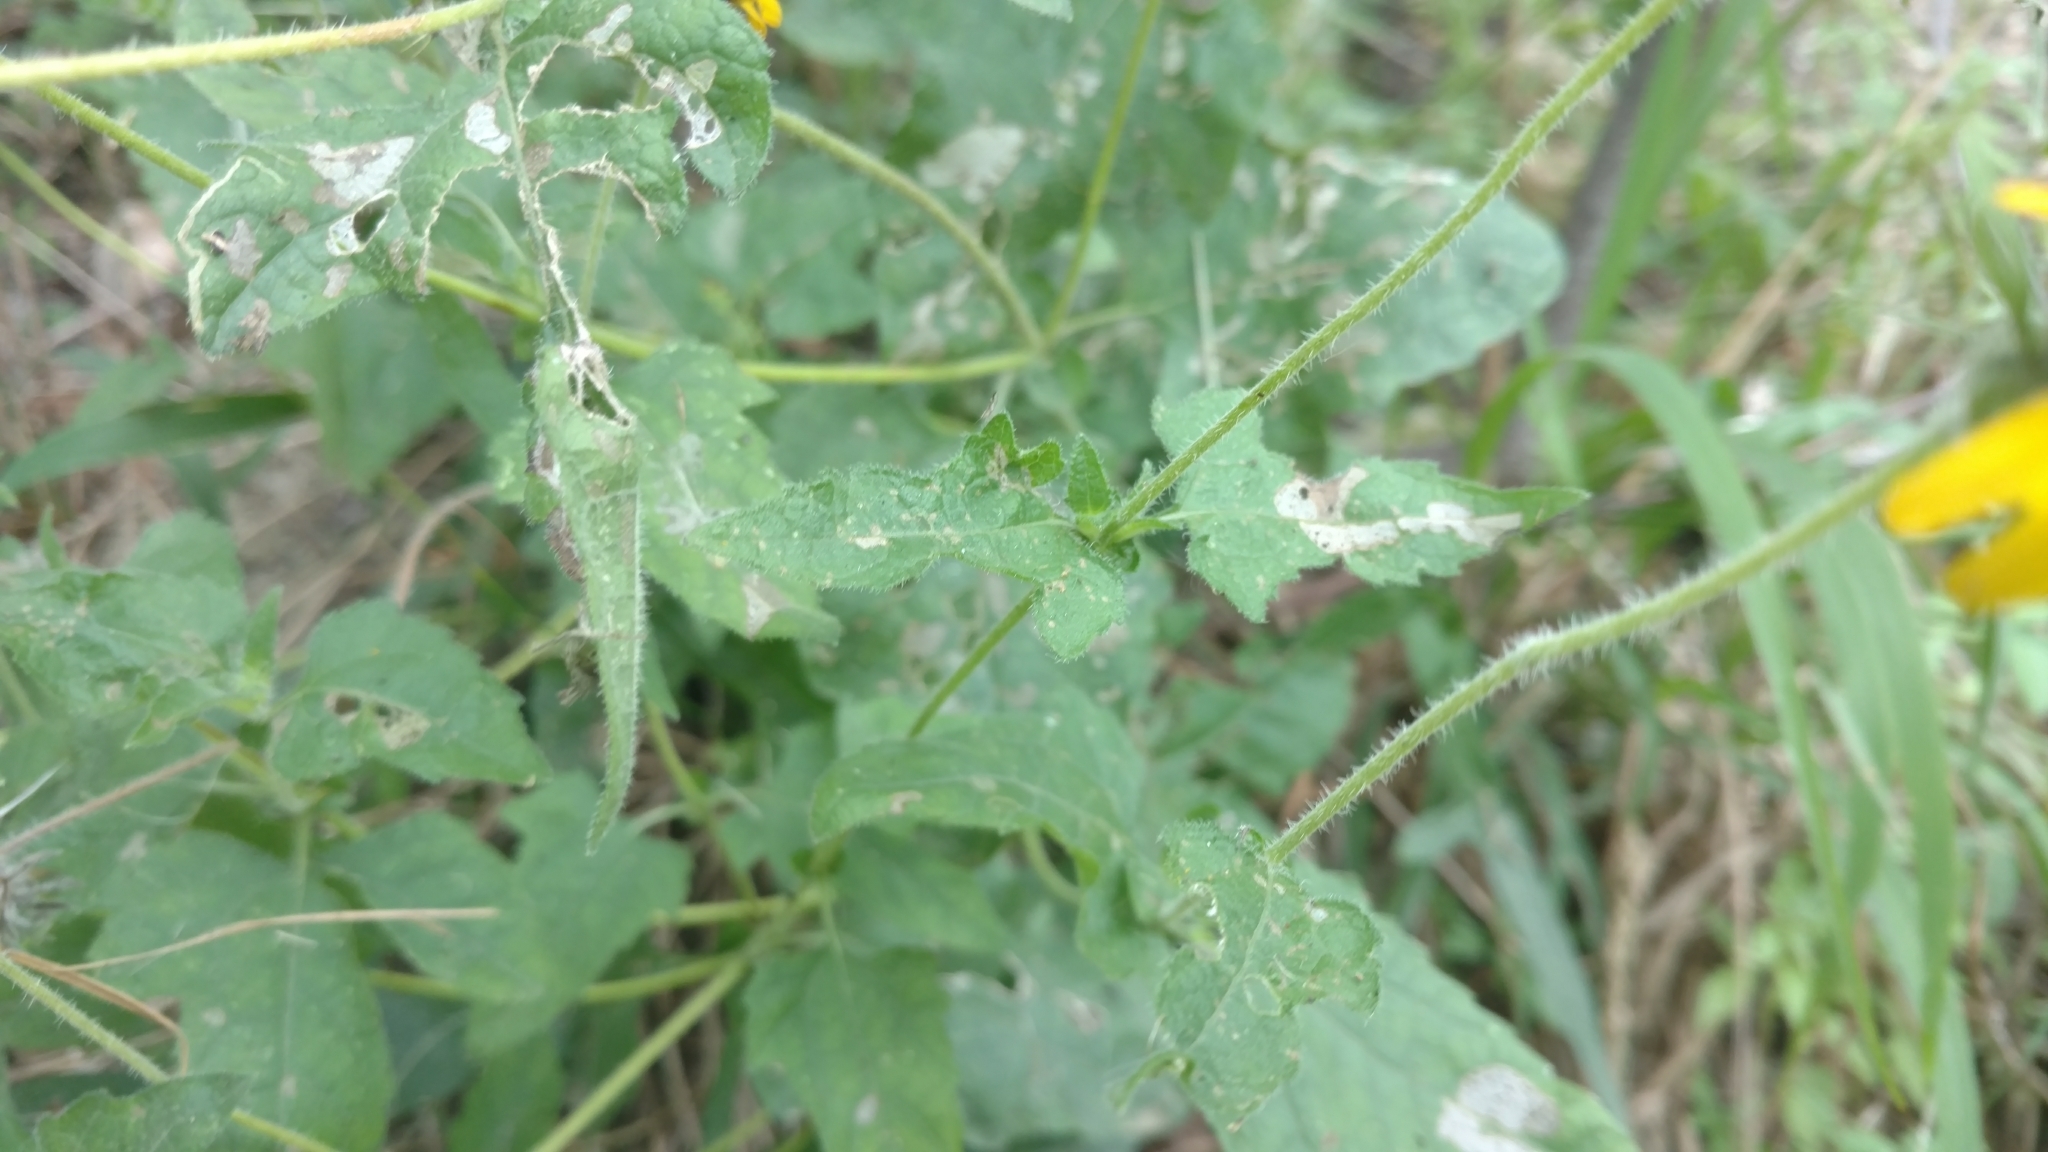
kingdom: Plantae
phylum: Tracheophyta
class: Magnoliopsida
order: Asterales
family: Asteraceae
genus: Simsia
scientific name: Simsia calva
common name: Awnless bush-sunflower
